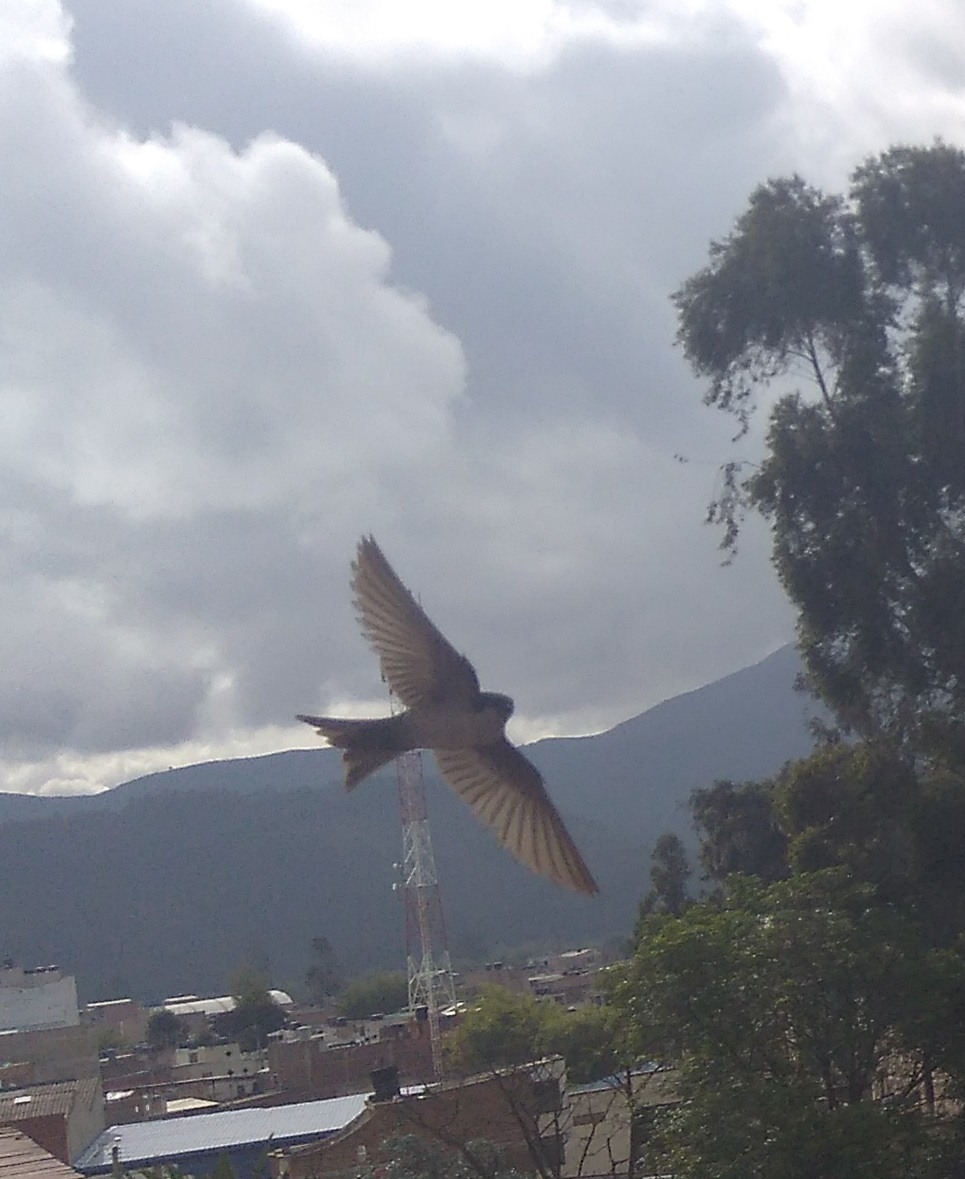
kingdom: Animalia
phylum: Chordata
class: Aves
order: Passeriformes
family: Hirundinidae
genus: Tachycineta
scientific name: Tachycineta albiventer
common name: White-winged swallow
